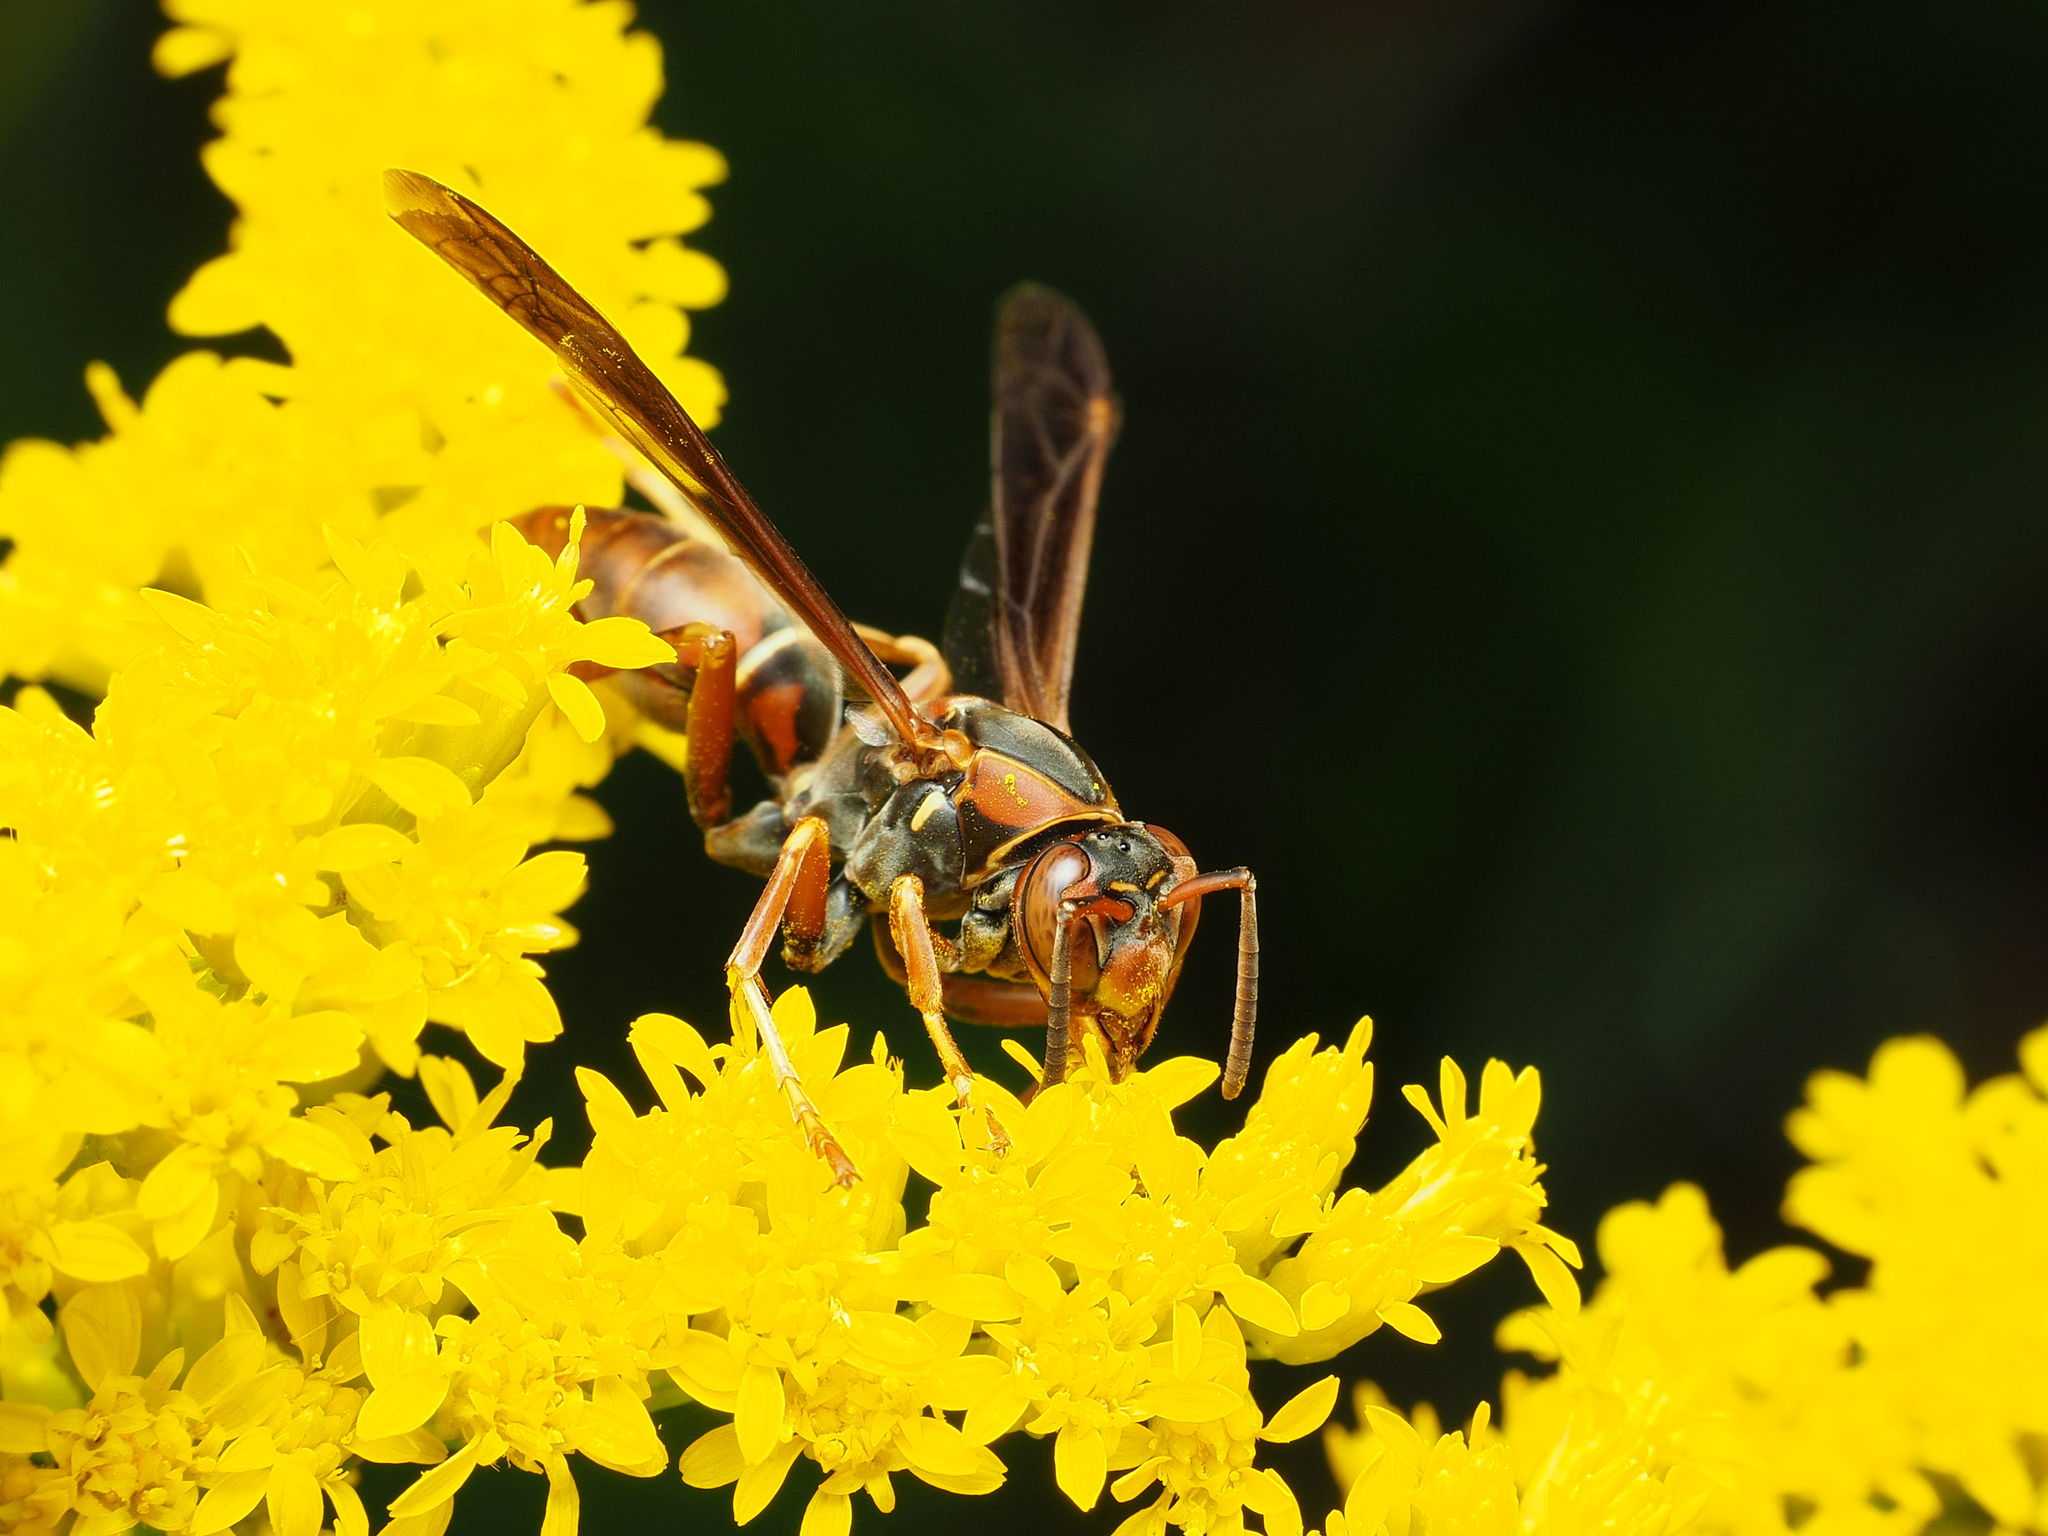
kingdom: Animalia
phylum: Arthropoda
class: Insecta
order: Hymenoptera
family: Eumenidae
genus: Polistes
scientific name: Polistes fuscatus
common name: Dark paper wasp
